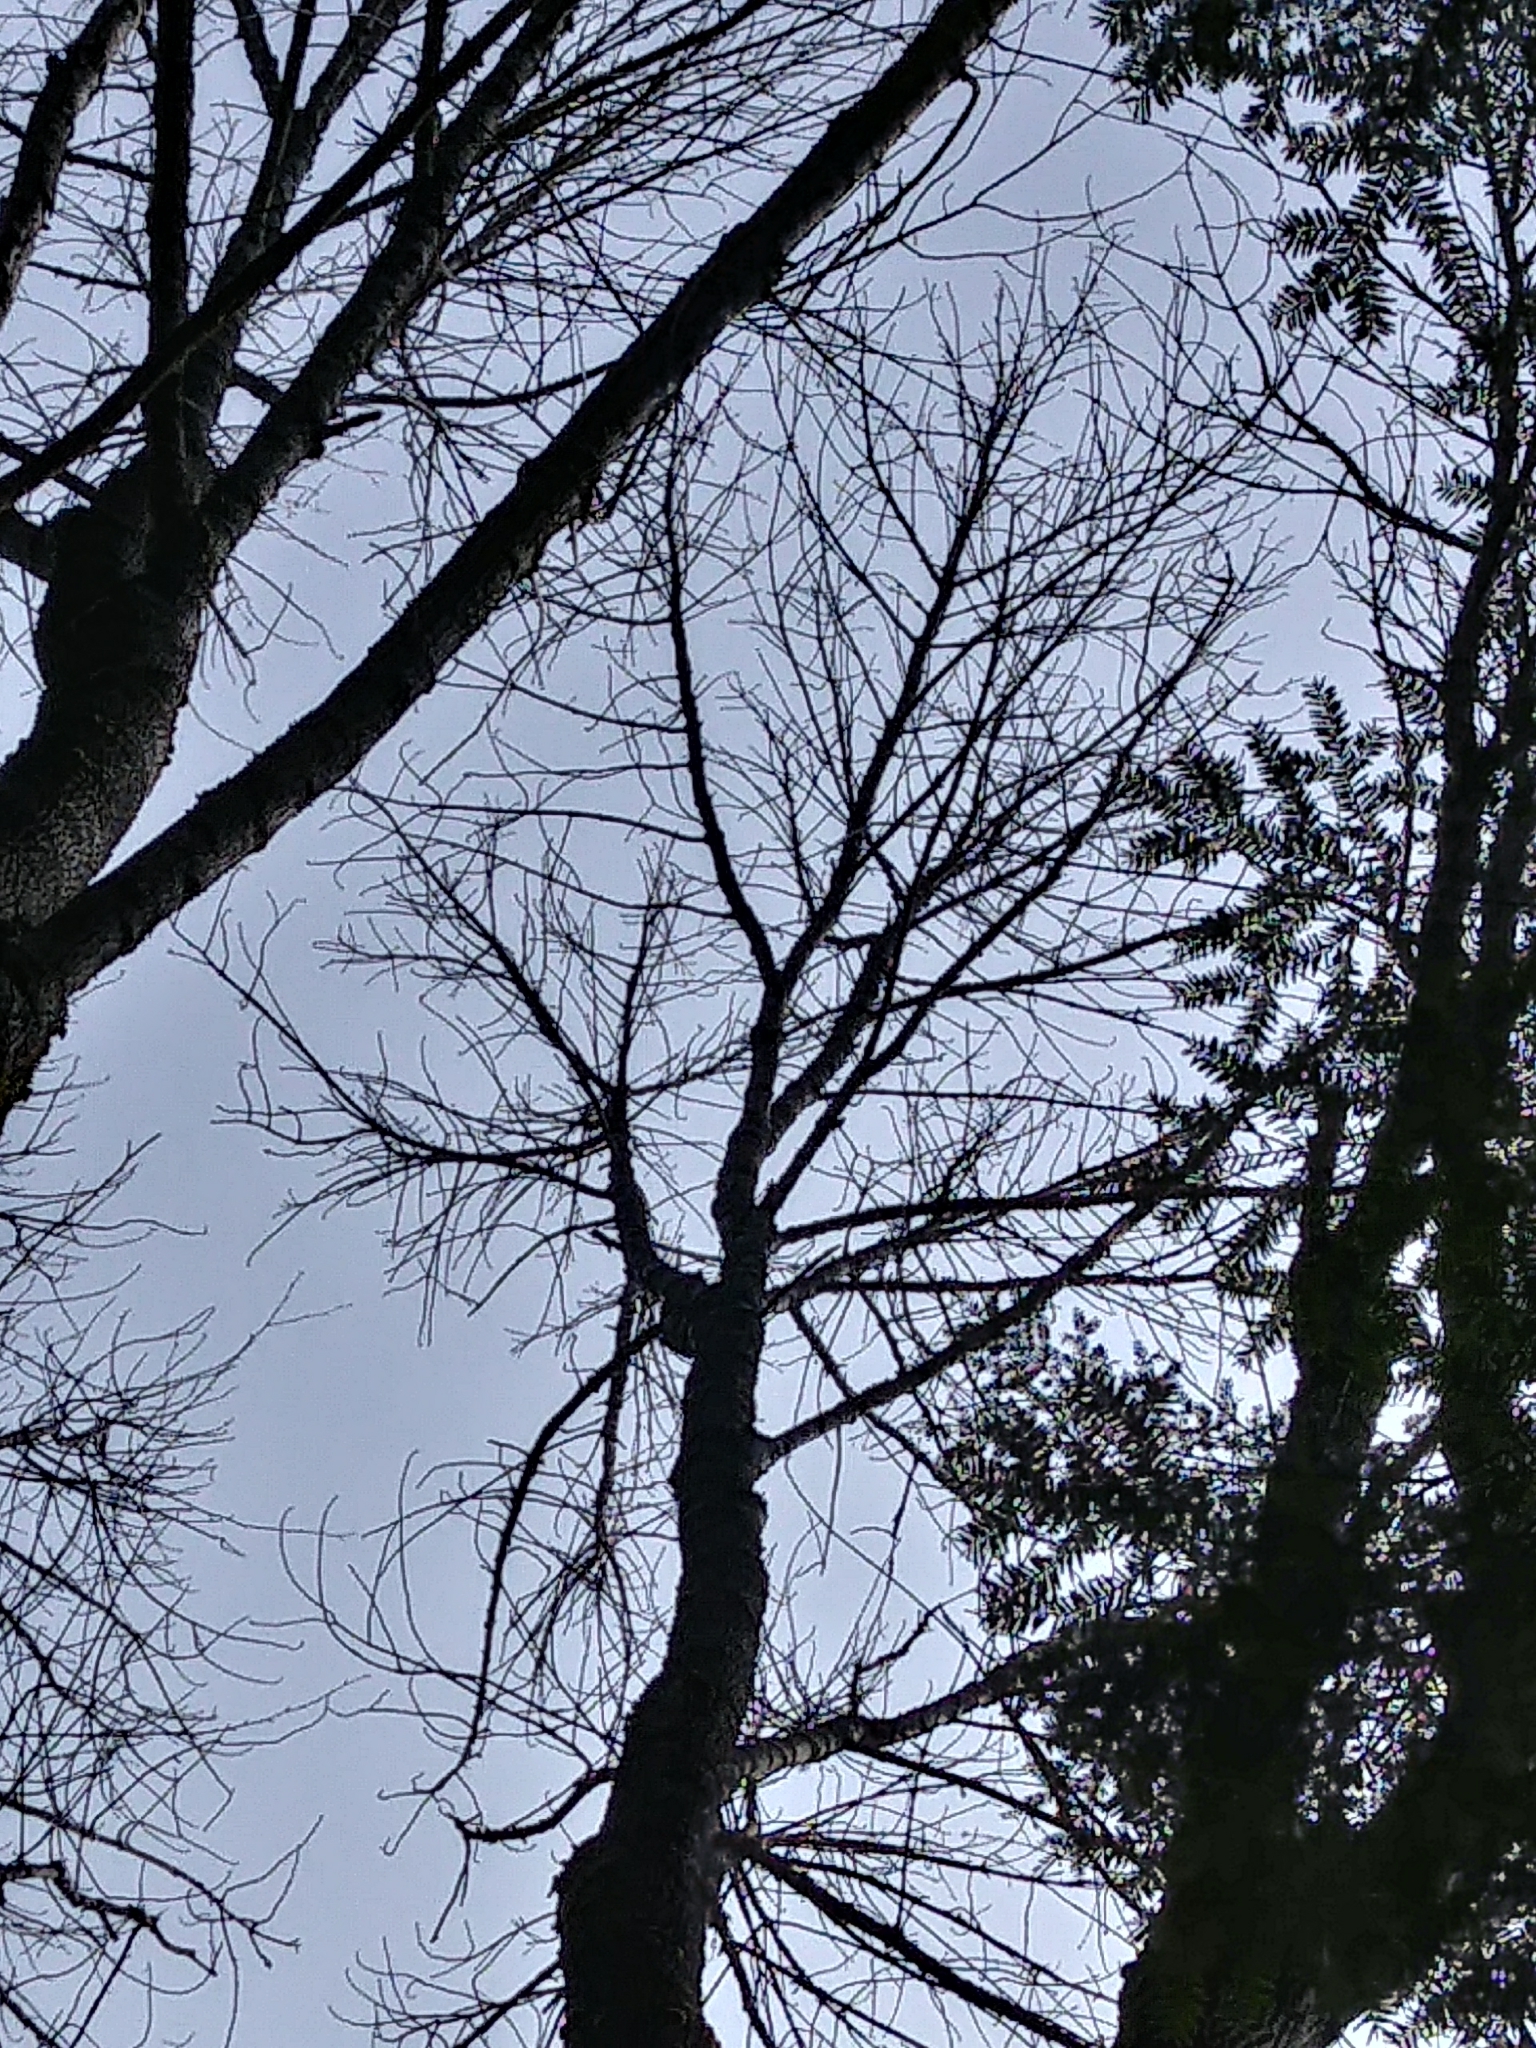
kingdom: Plantae
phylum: Tracheophyta
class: Magnoliopsida
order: Lamiales
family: Oleaceae
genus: Fraxinus
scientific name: Fraxinus americana
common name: White ash
